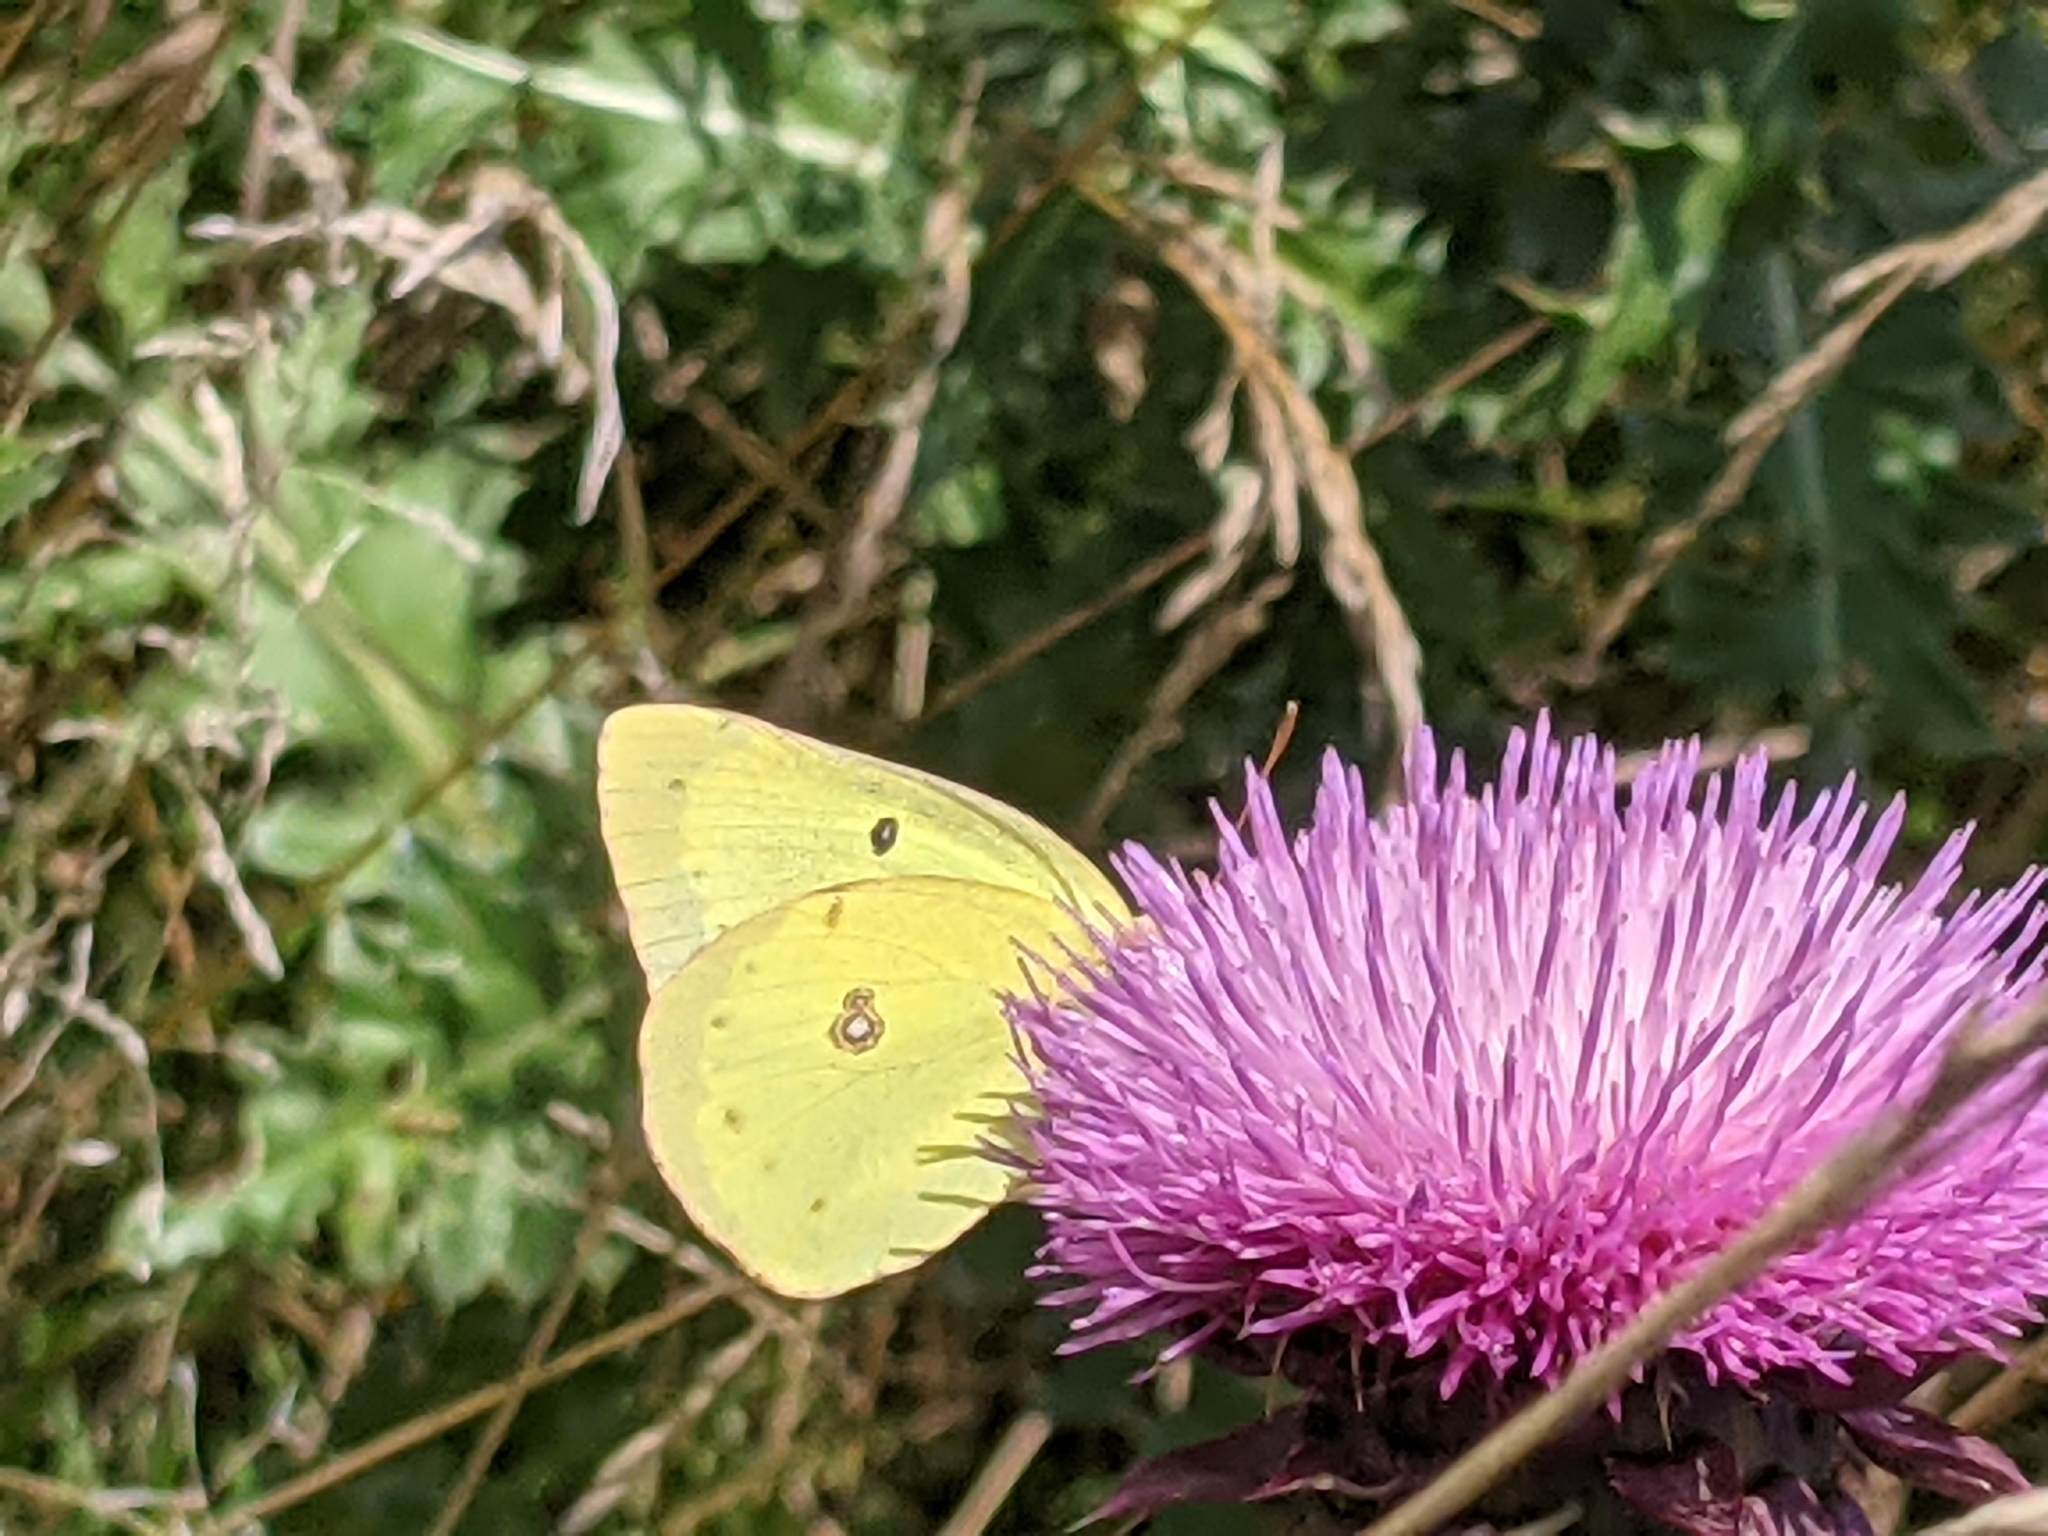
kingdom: Animalia
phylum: Arthropoda
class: Insecta
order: Lepidoptera
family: Pieridae
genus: Colias
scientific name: Colias philodice
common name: Clouded sulphur
